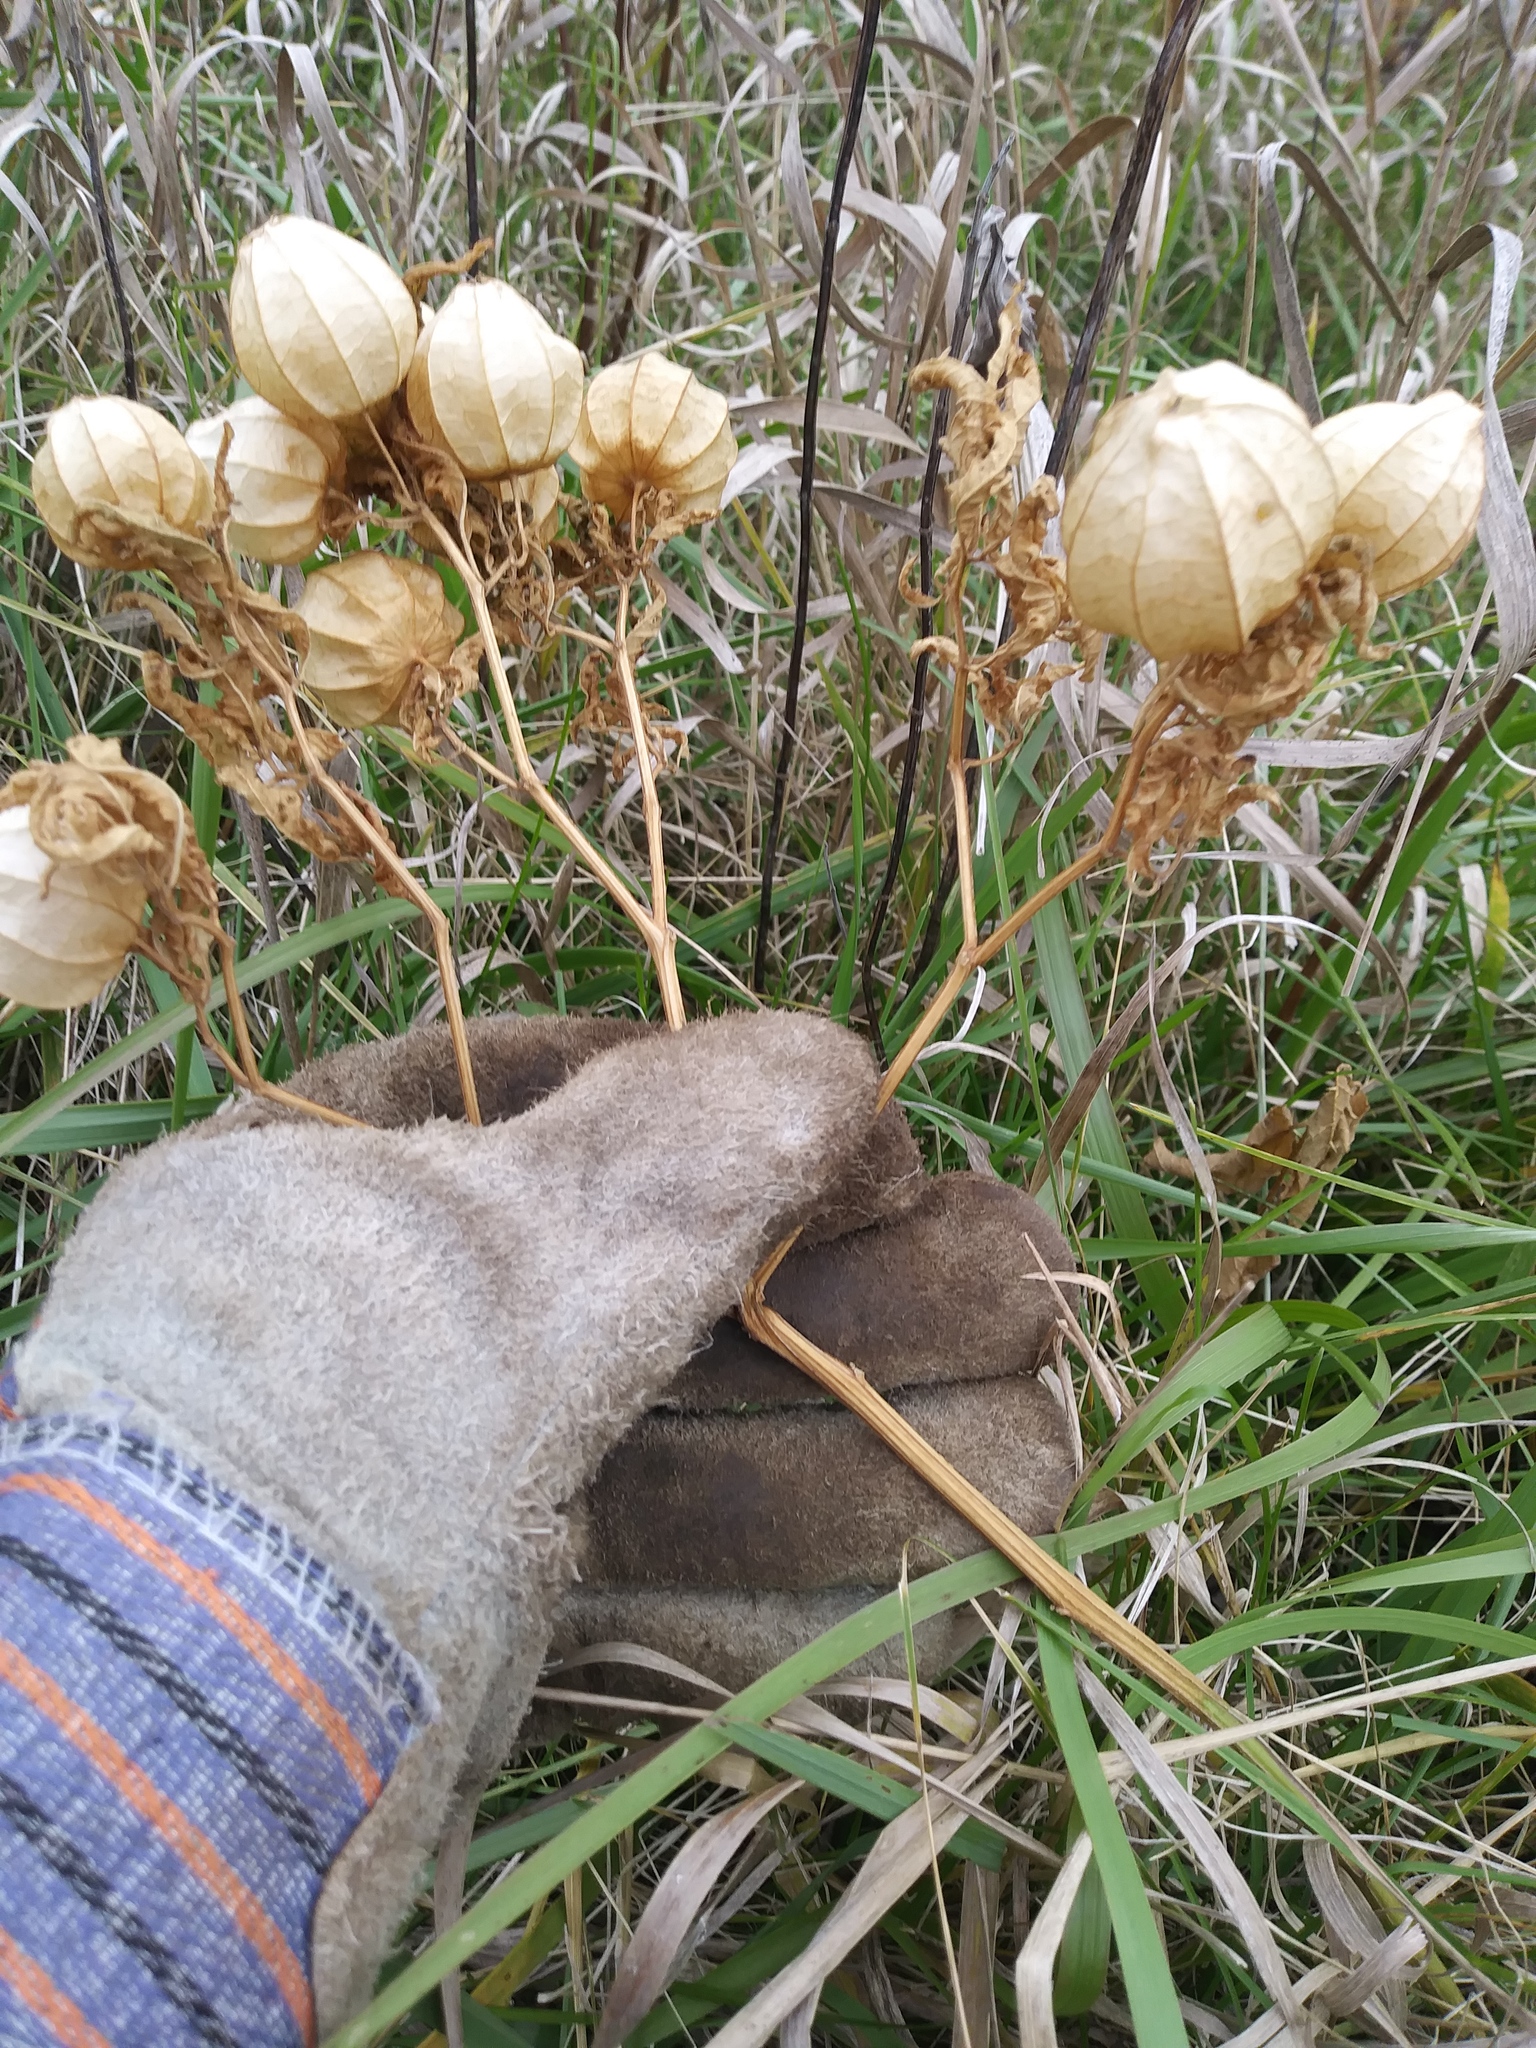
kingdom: Plantae
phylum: Tracheophyta
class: Magnoliopsida
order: Solanales
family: Solanaceae
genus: Physalis
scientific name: Physalis
